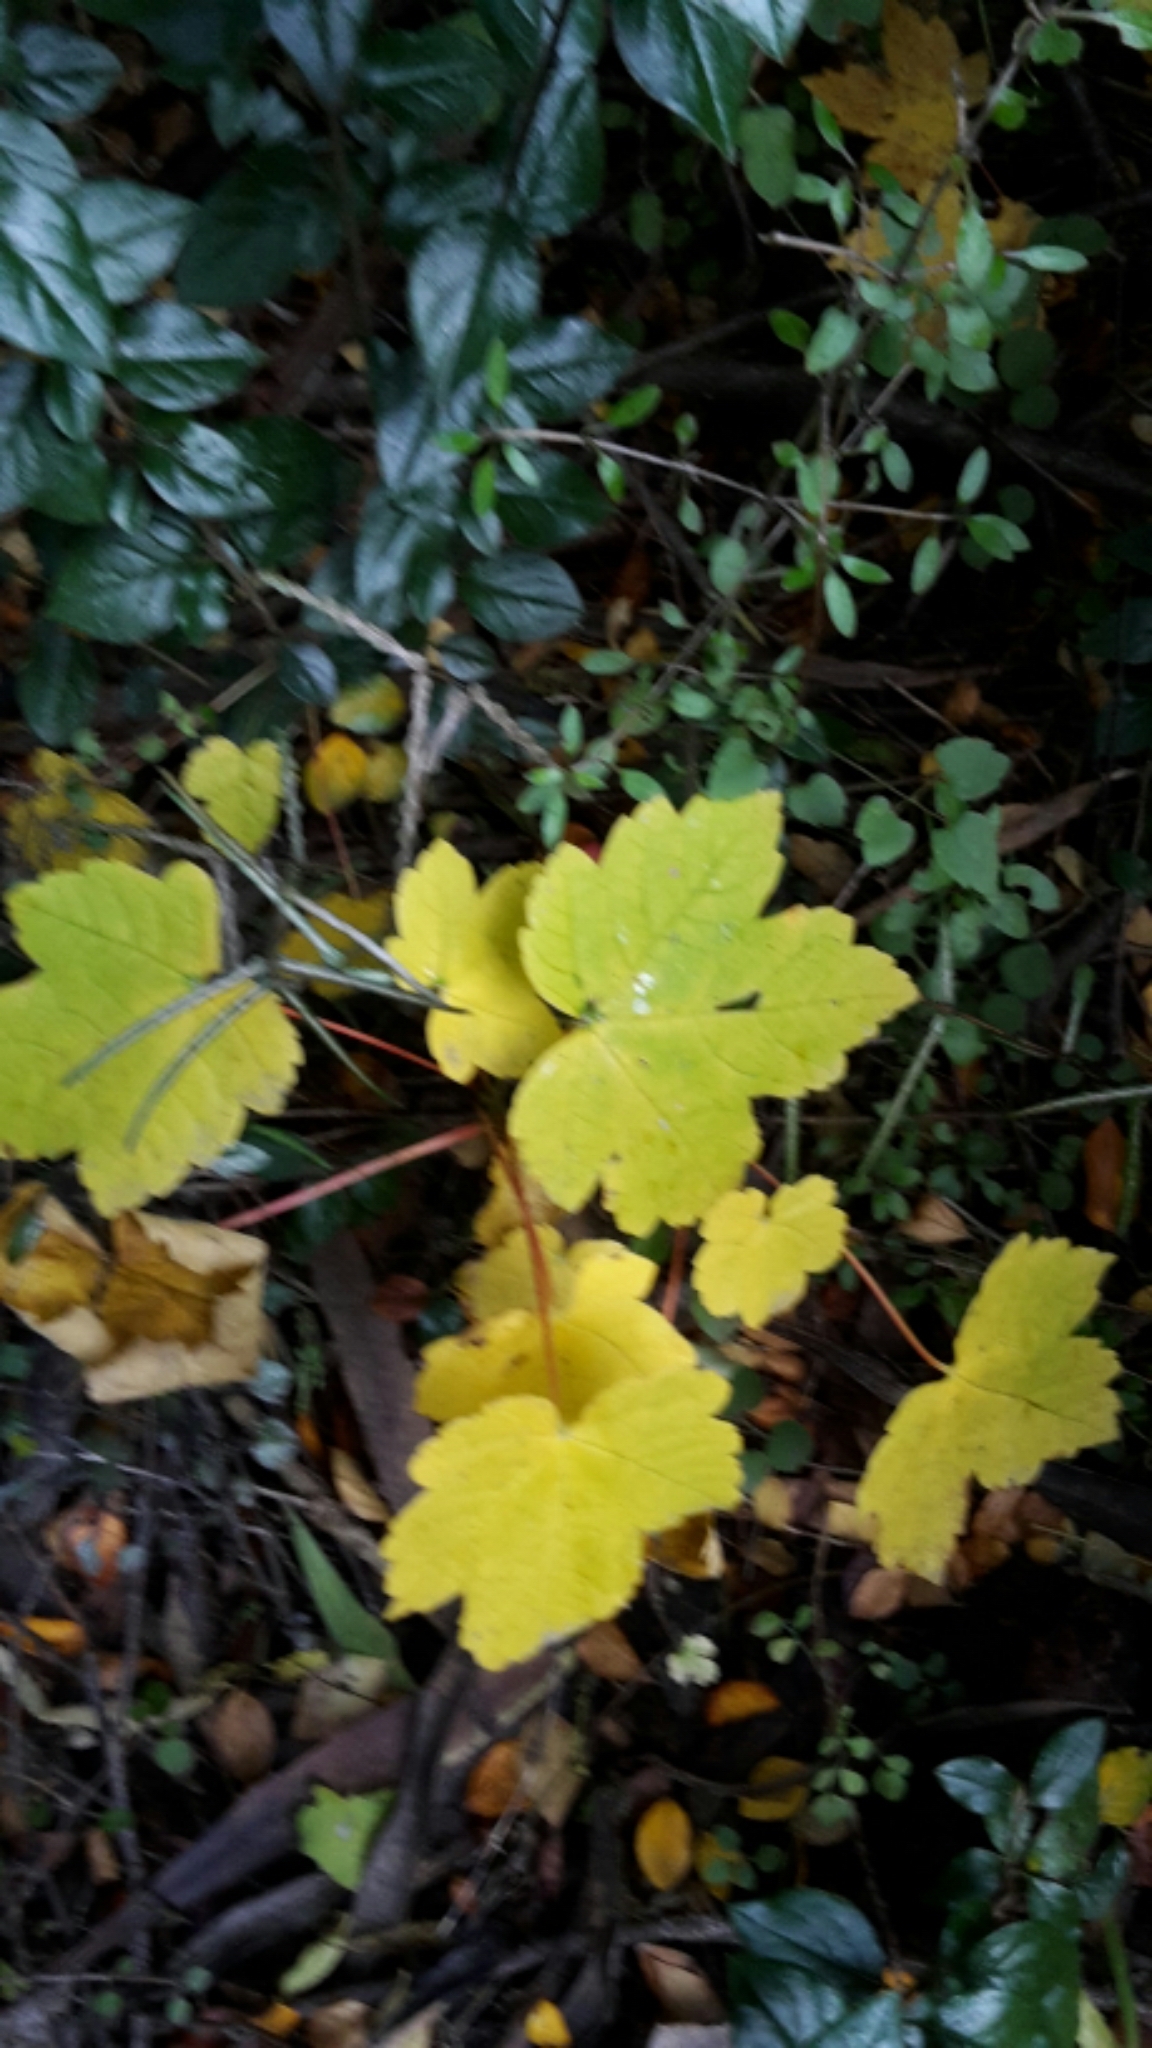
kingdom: Plantae
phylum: Tracheophyta
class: Magnoliopsida
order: Sapindales
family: Sapindaceae
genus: Acer
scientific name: Acer pseudoplatanus
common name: Sycamore
